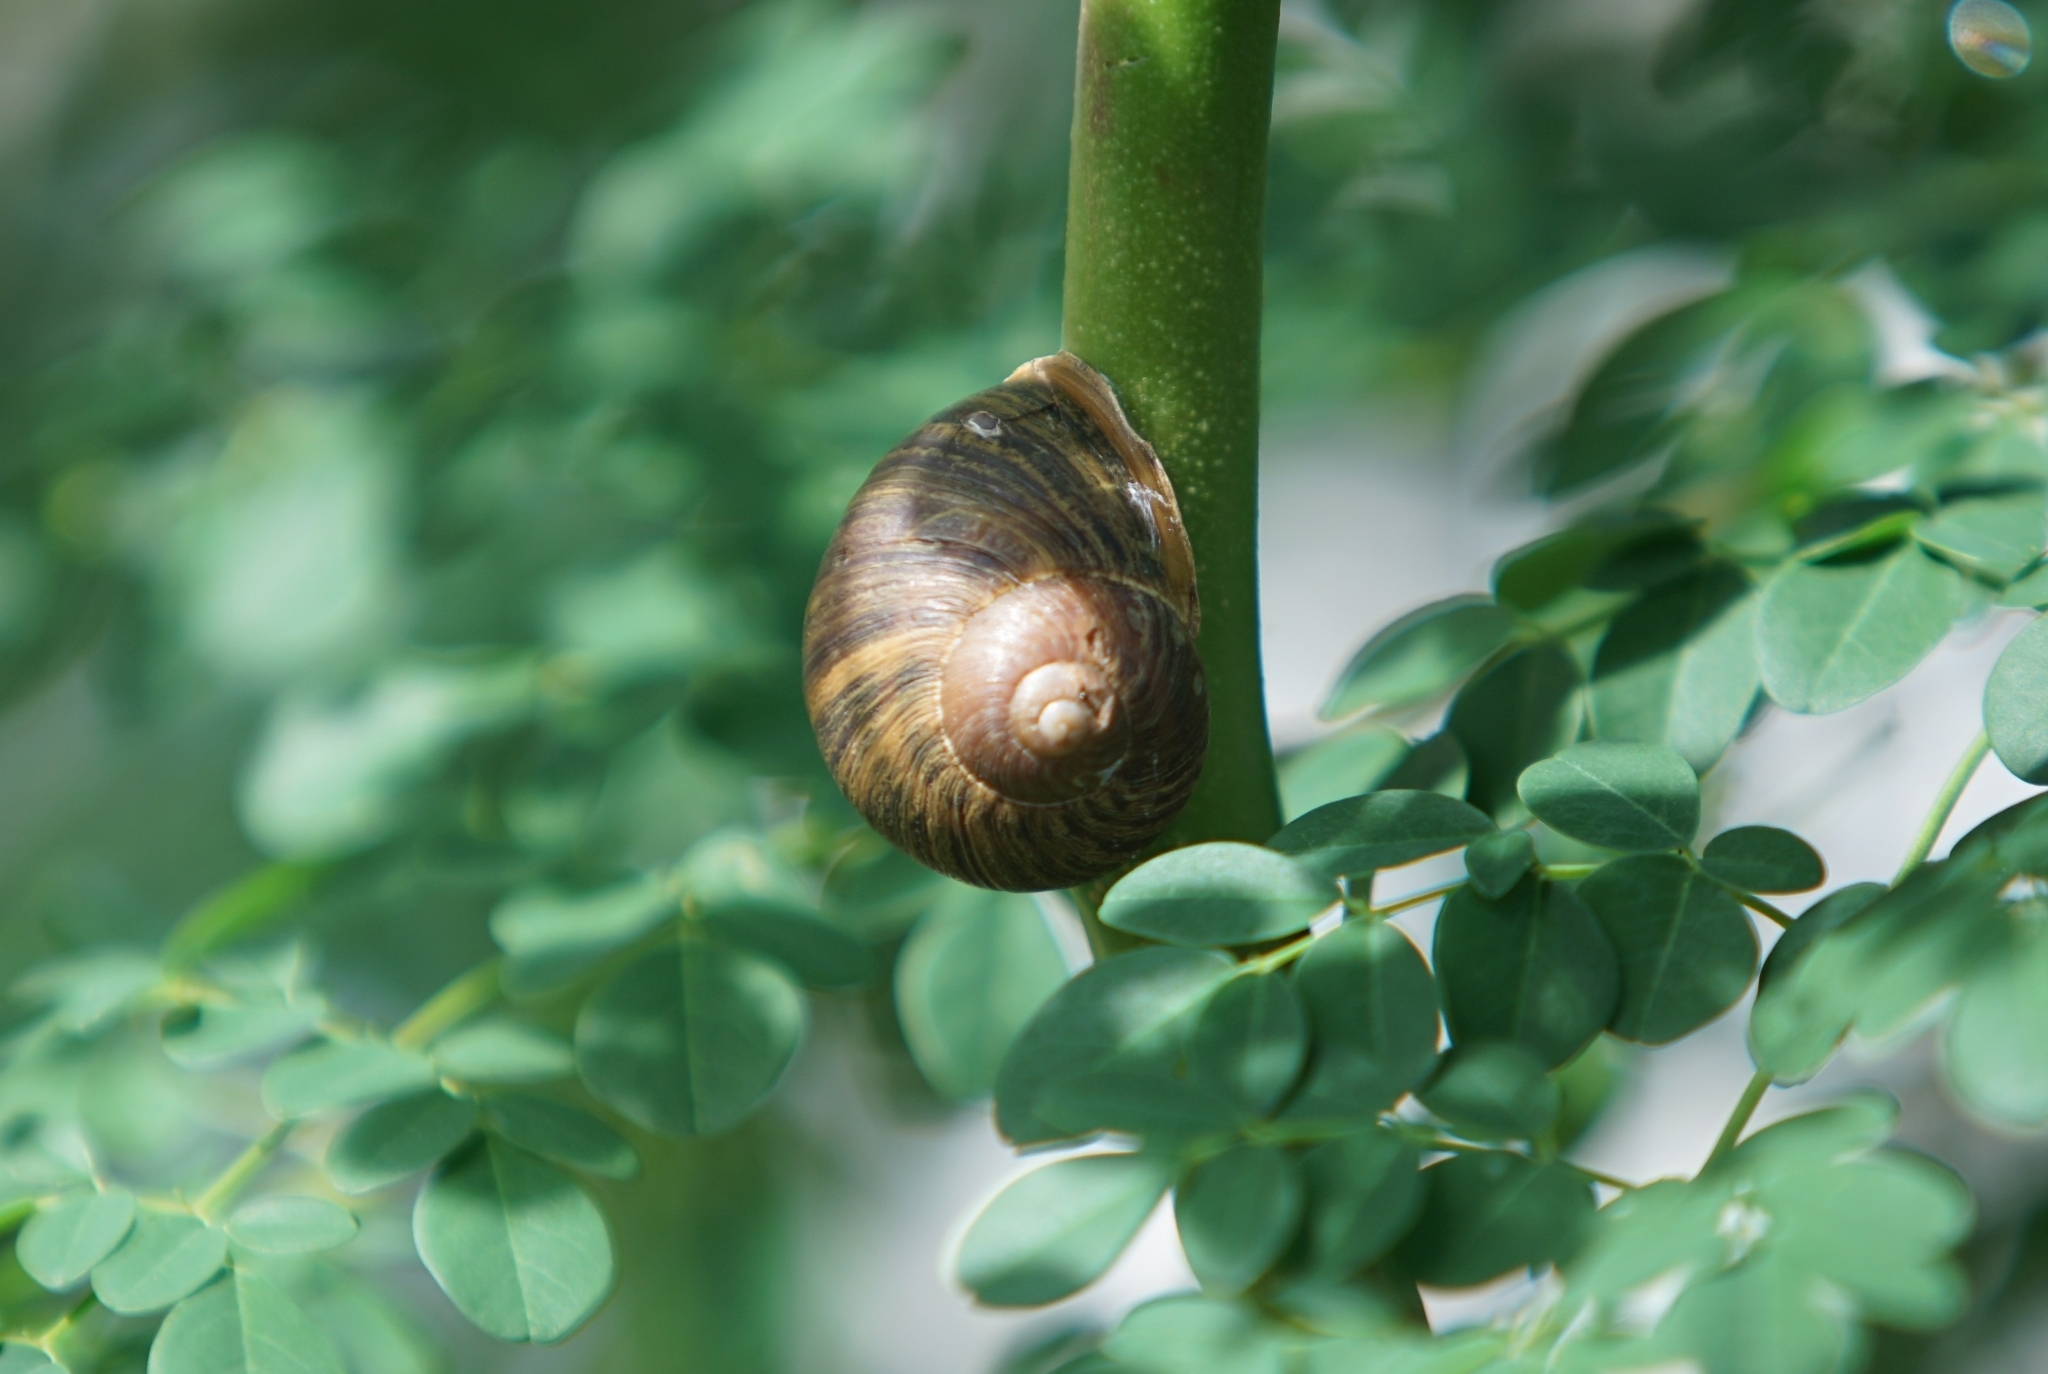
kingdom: Animalia
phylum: Mollusca
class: Gastropoda
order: Stylommatophora
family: Helicidae
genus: Cornu
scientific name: Cornu aspersum
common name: Brown garden snail
